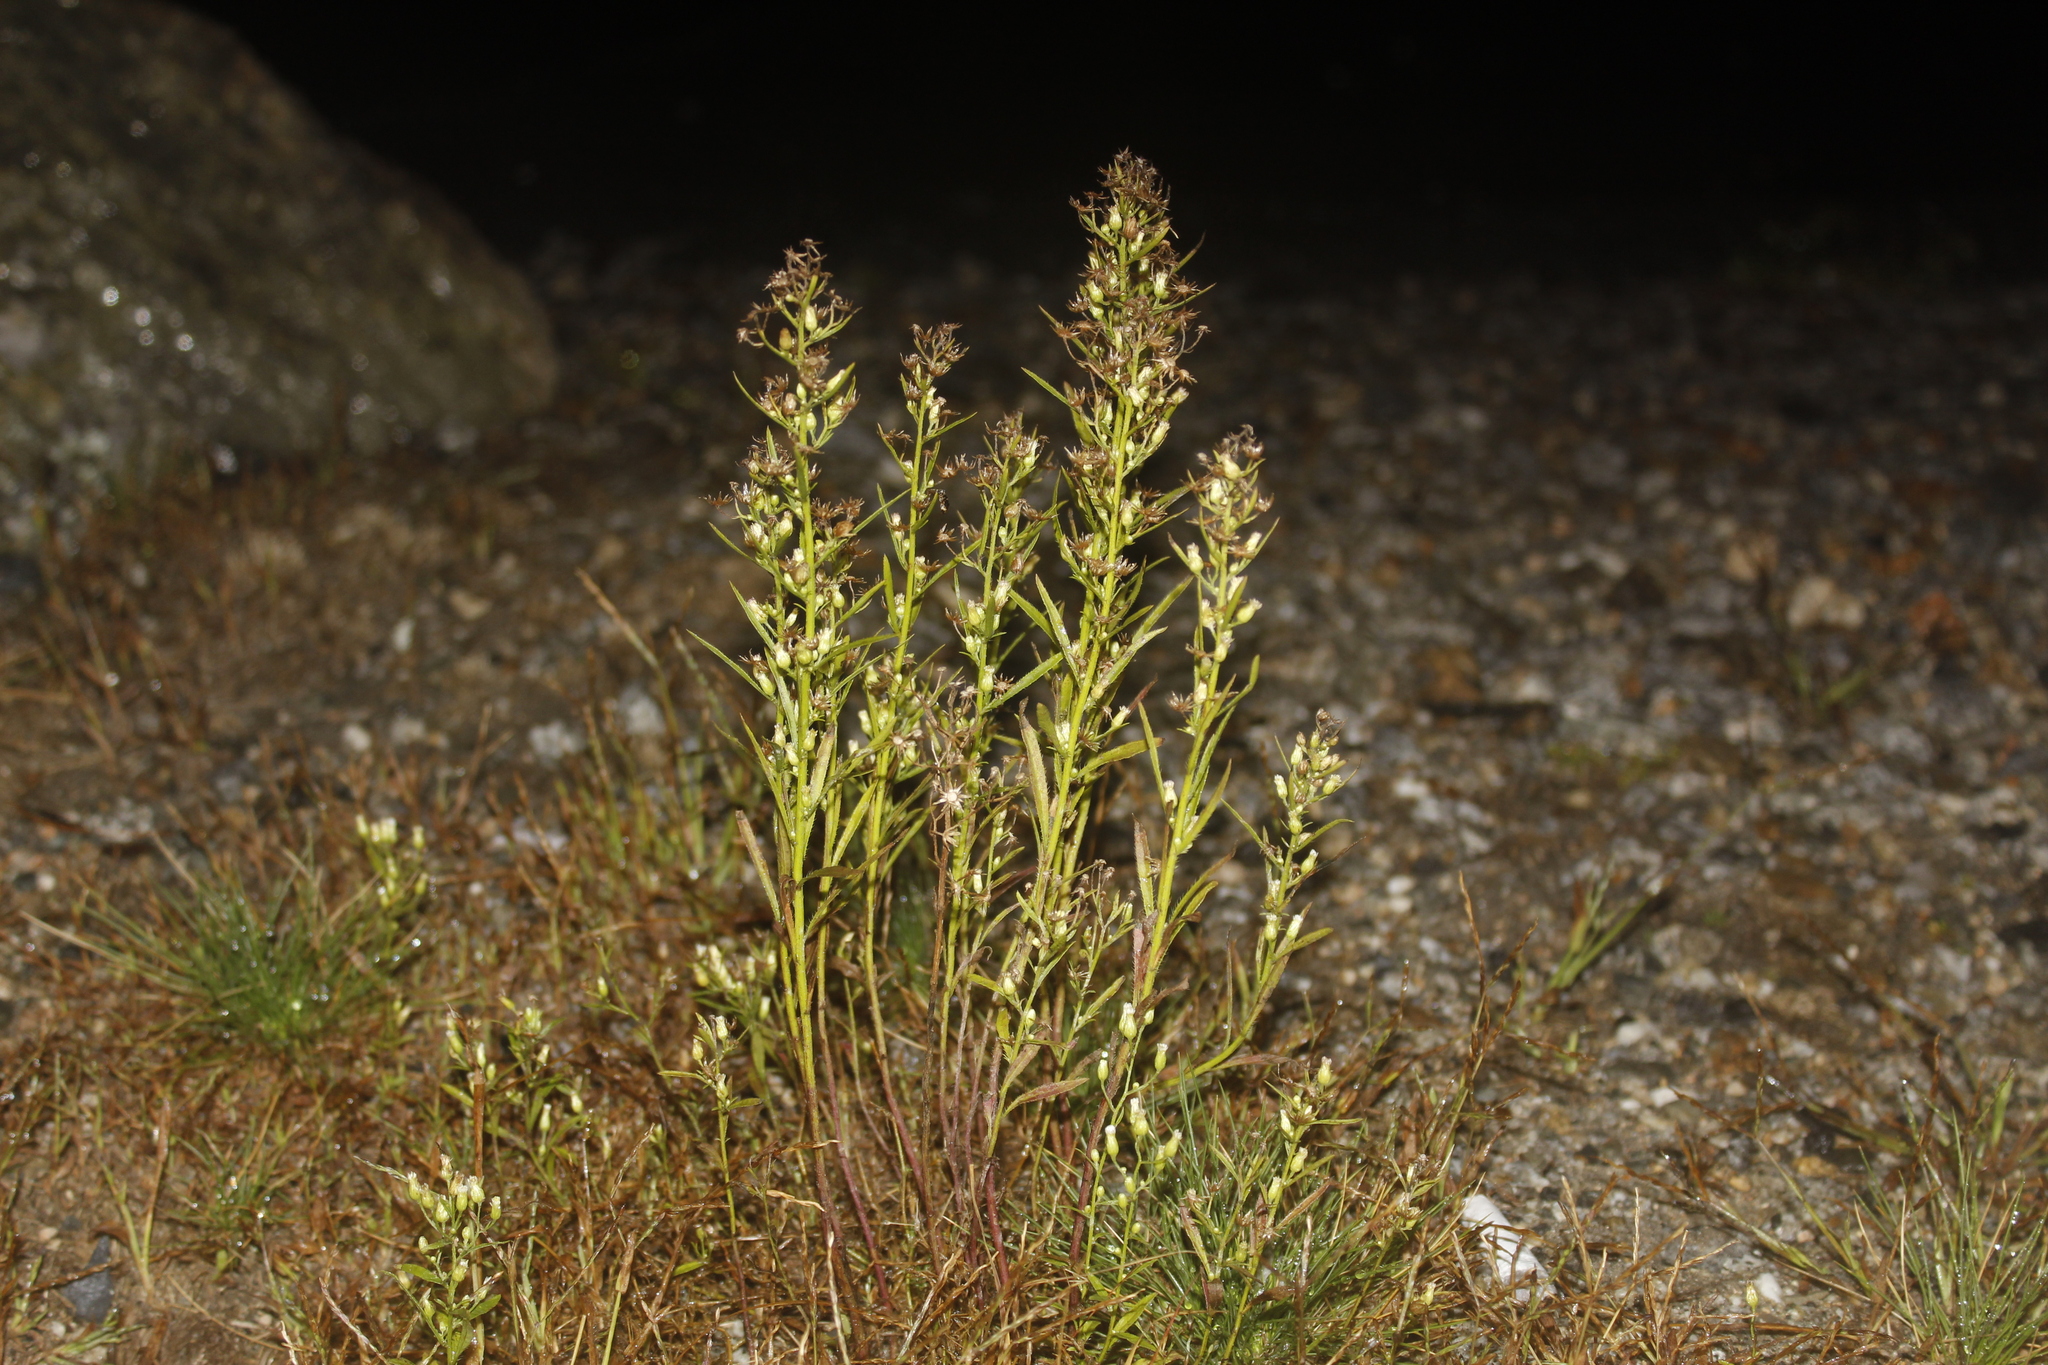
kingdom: Plantae
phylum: Tracheophyta
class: Magnoliopsida
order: Asterales
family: Asteraceae
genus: Erigeron
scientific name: Erigeron canadensis
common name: Canadian fleabane
